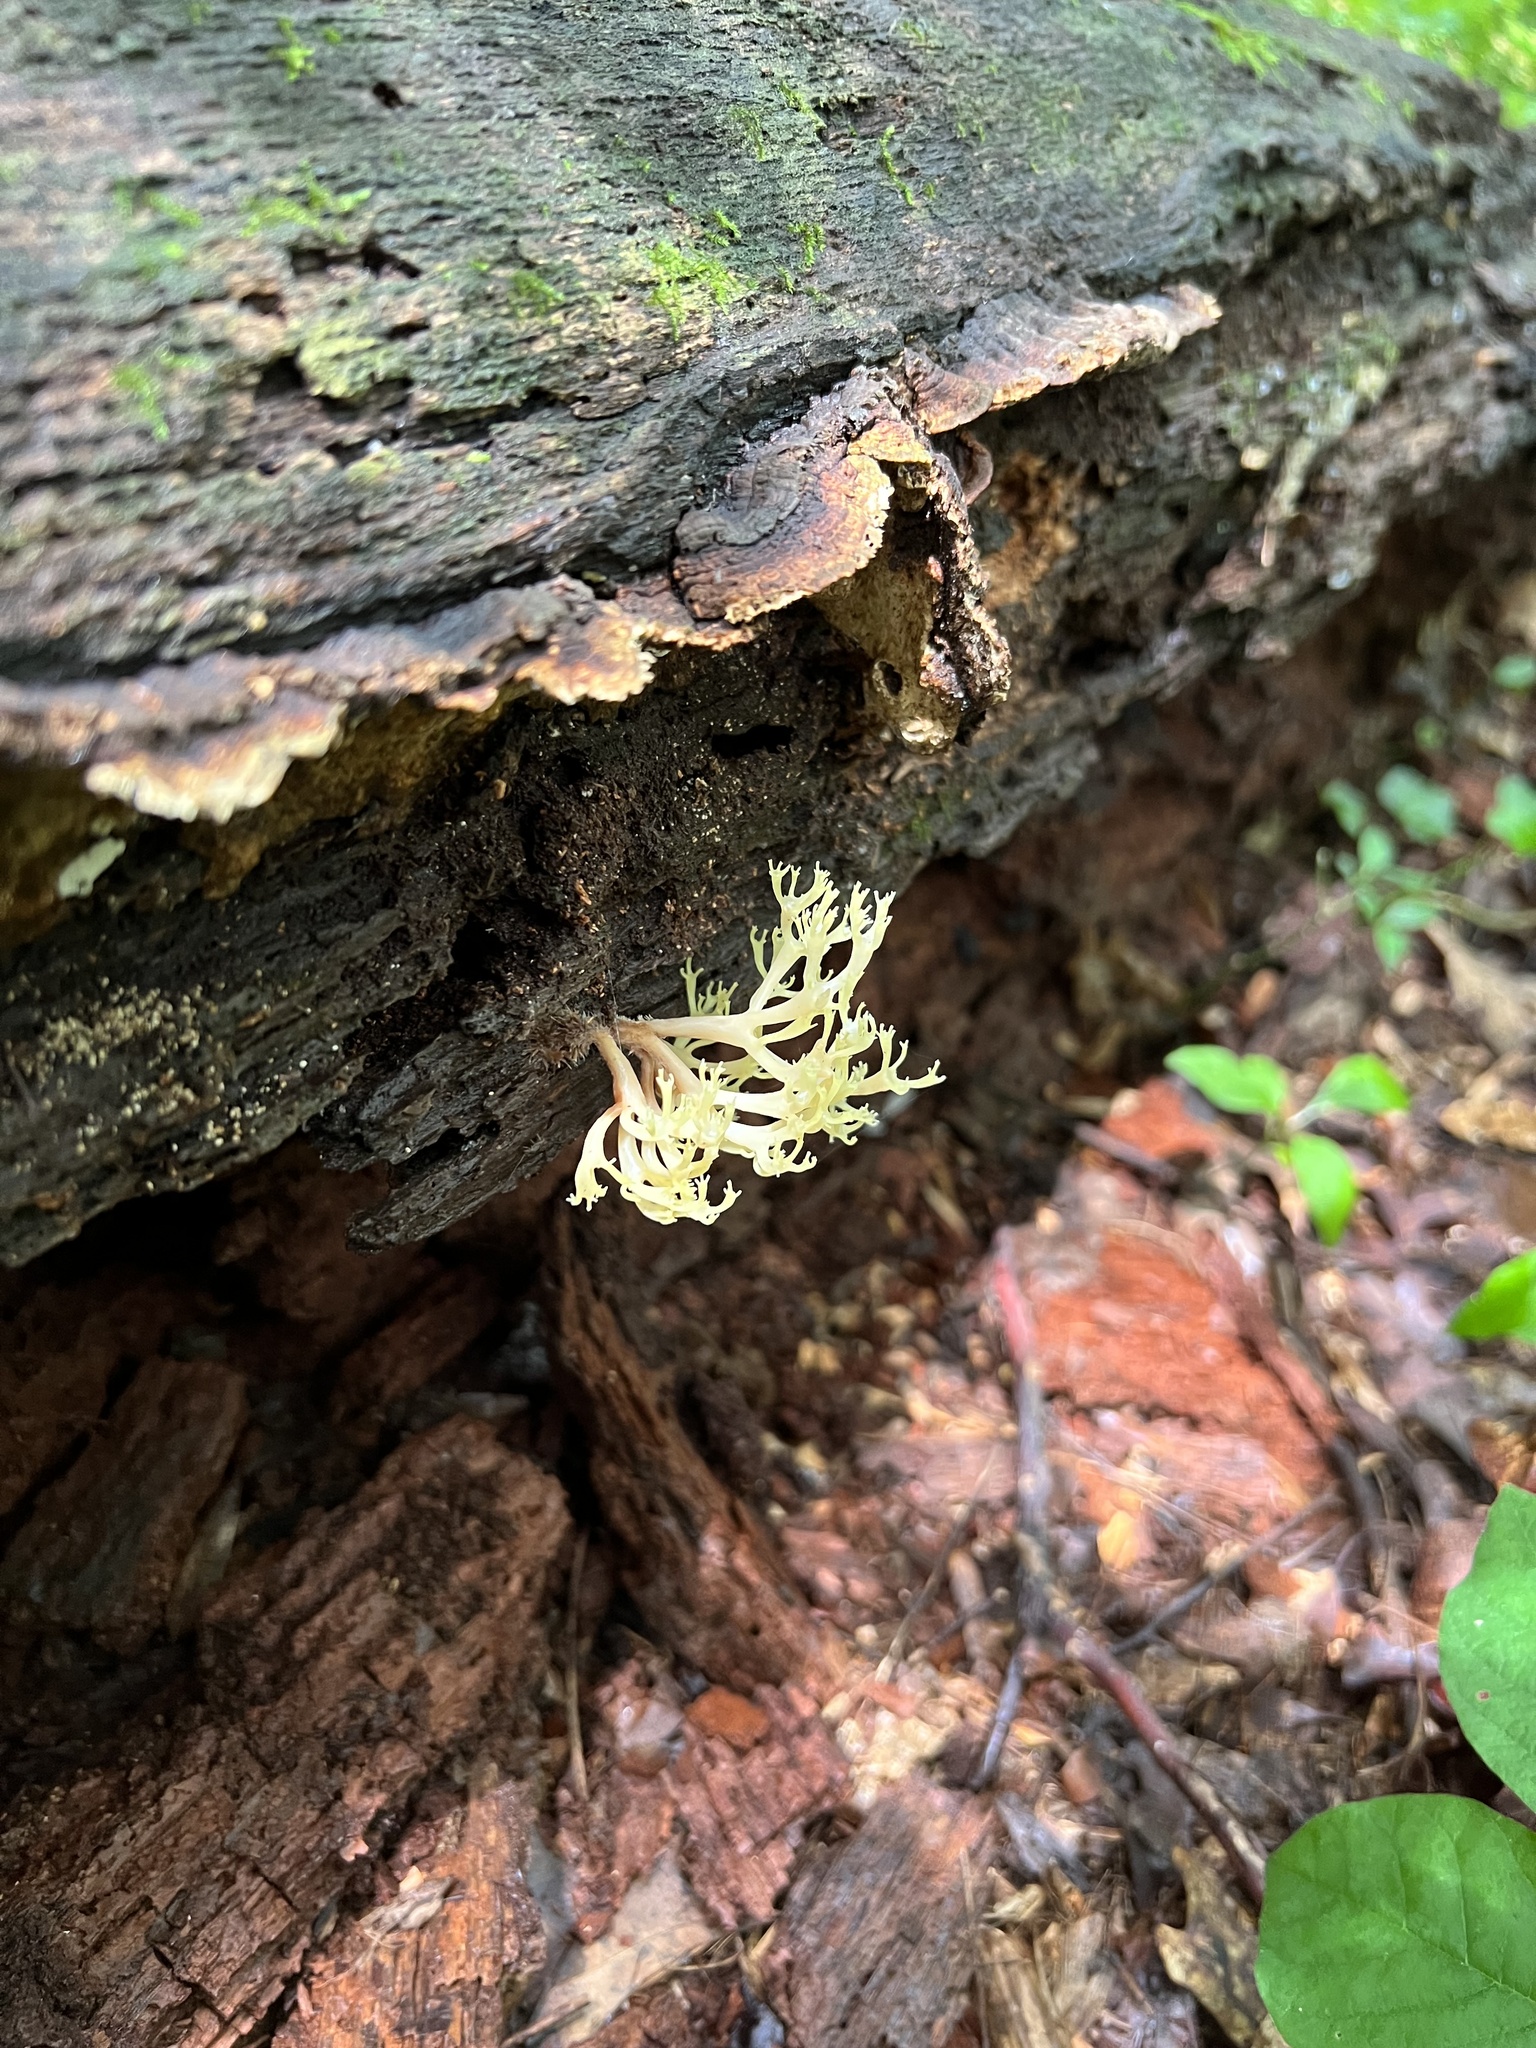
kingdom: Fungi
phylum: Basidiomycota
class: Agaricomycetes
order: Russulales
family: Auriscalpiaceae
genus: Artomyces
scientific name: Artomyces pyxidatus
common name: Crown-tipped coral fungus
